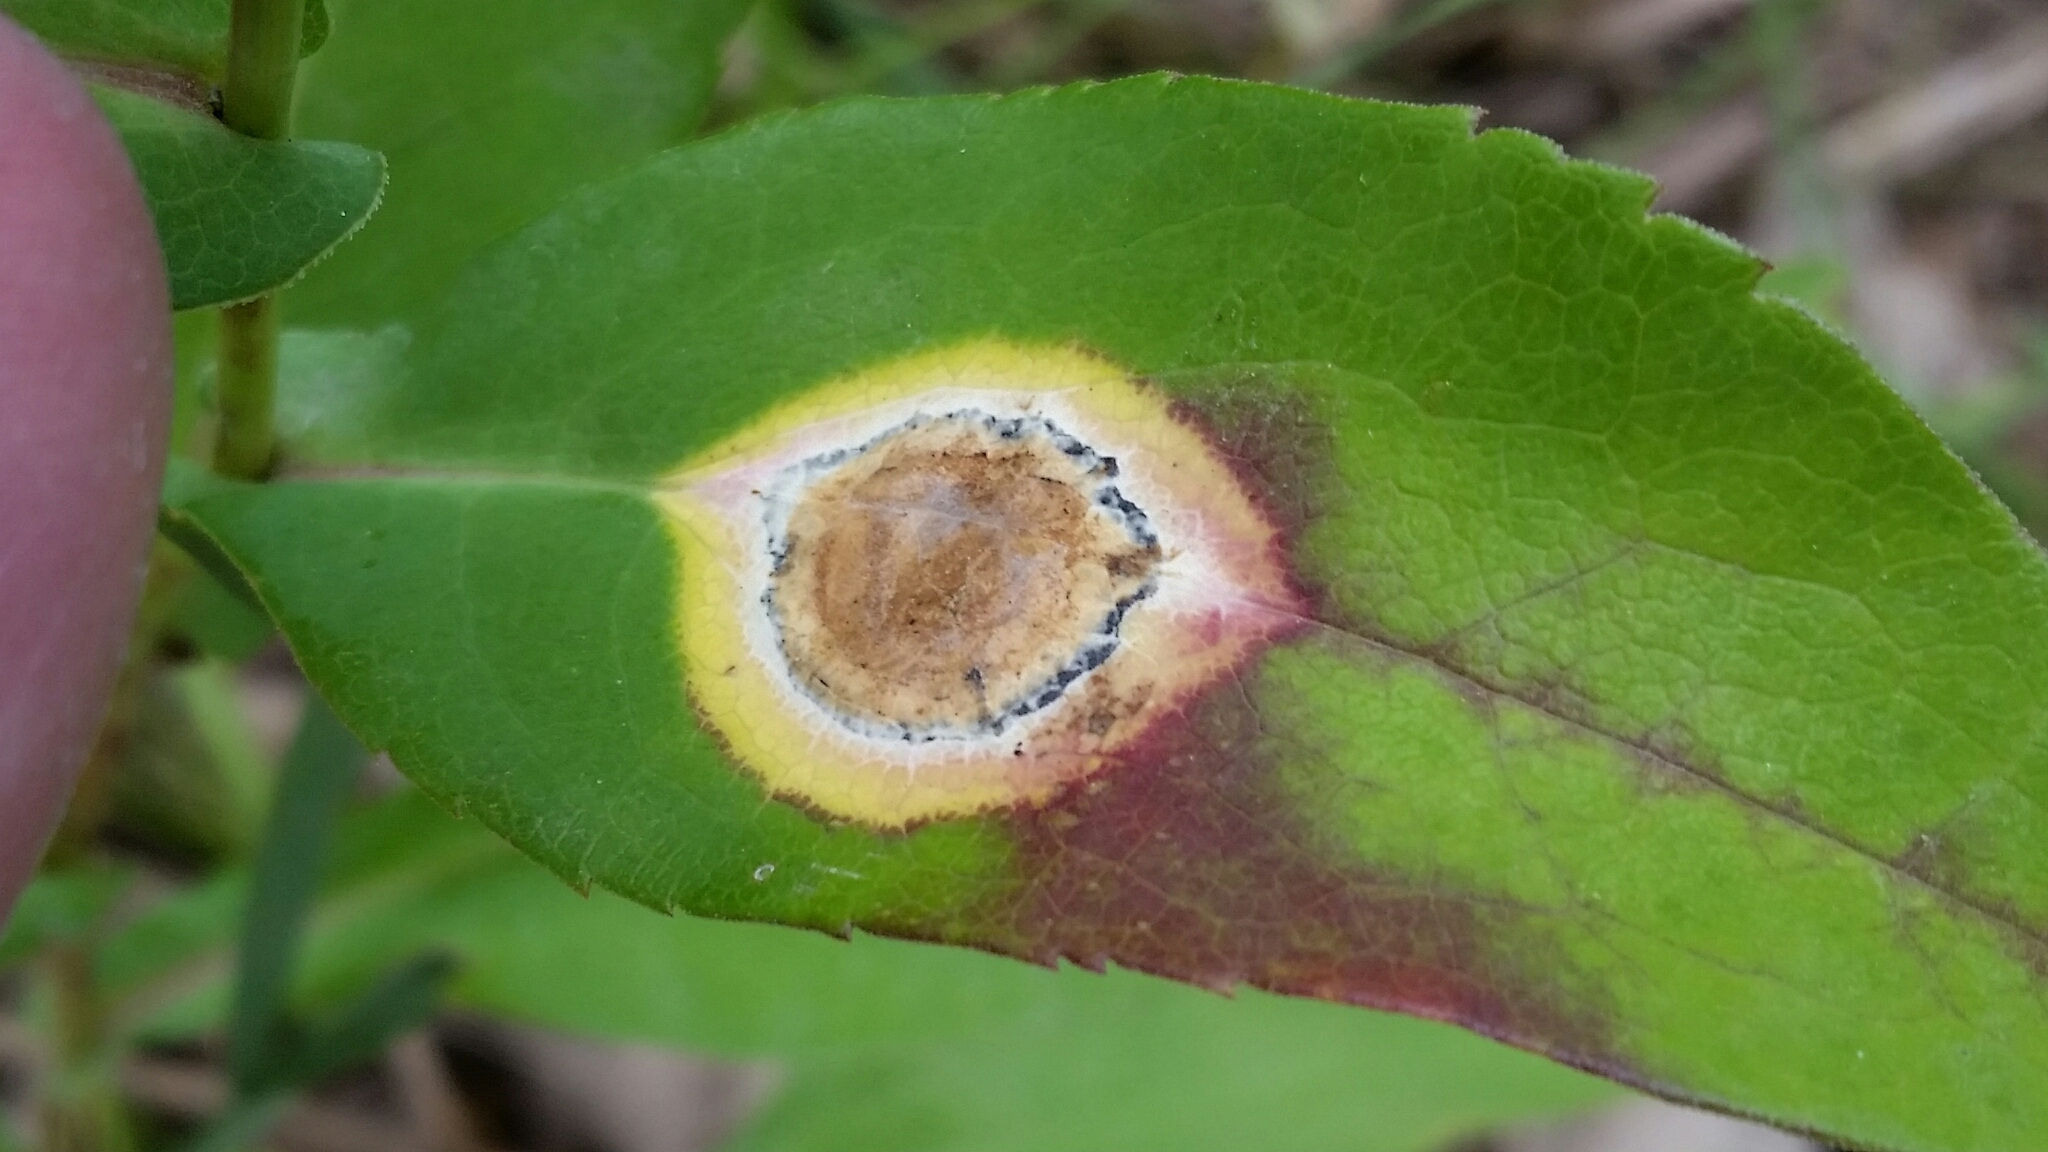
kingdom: Animalia
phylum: Arthropoda
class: Insecta
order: Diptera
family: Cecidomyiidae
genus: Asteromyia
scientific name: Asteromyia laeviana
